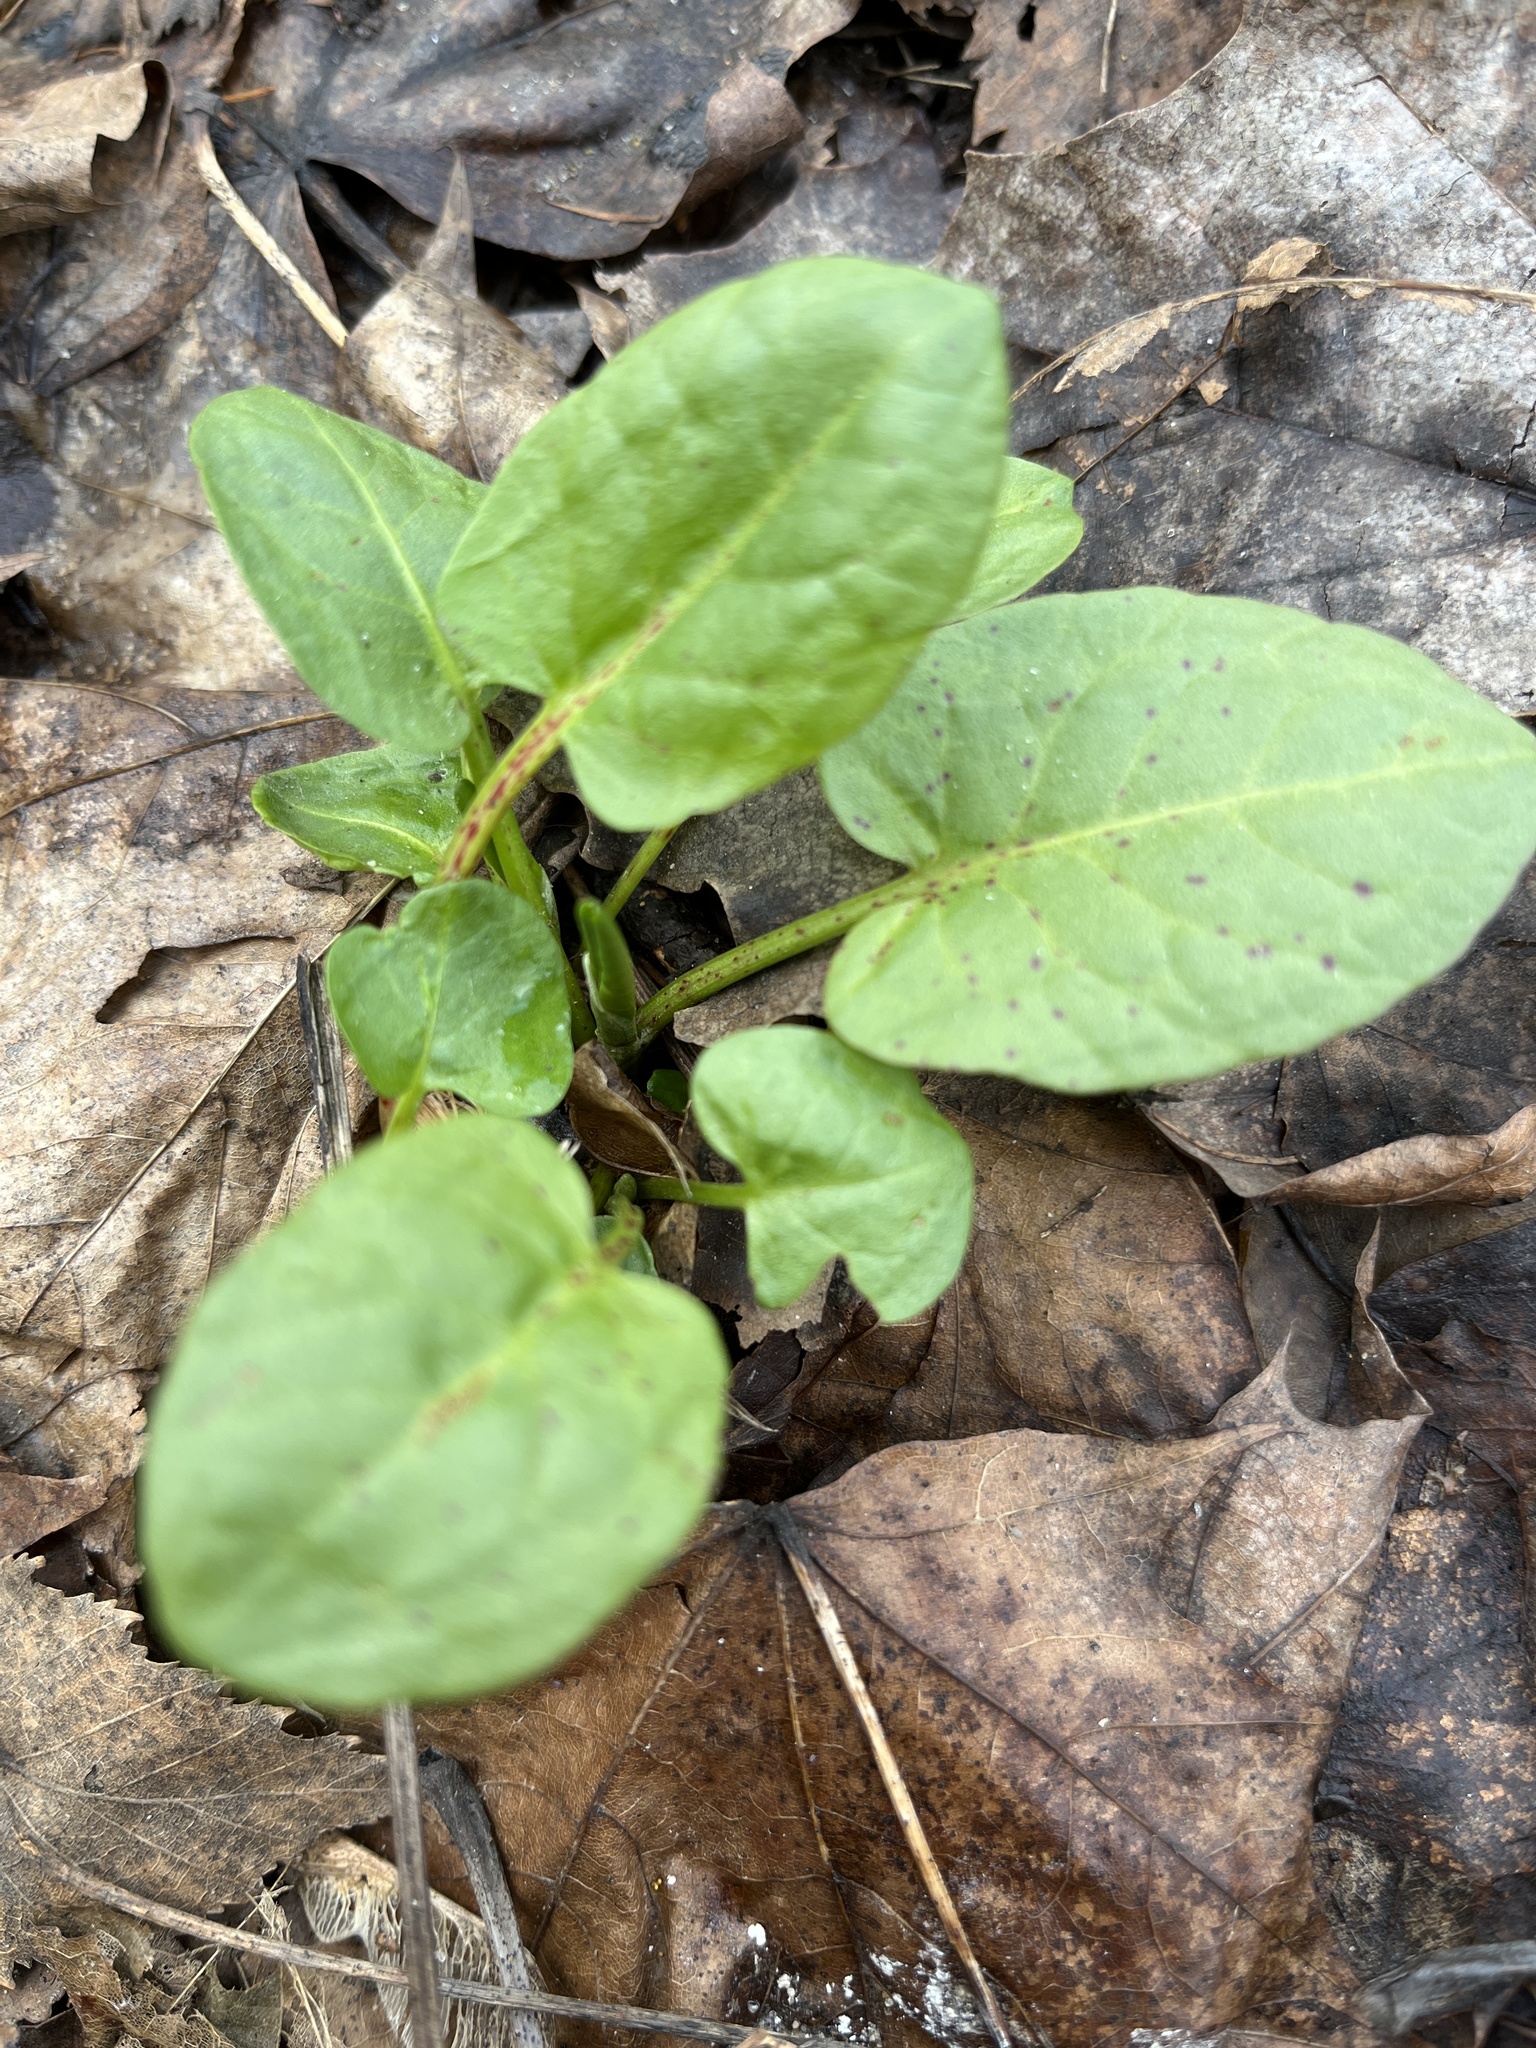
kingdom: Plantae
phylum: Tracheophyta
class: Magnoliopsida
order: Caryophyllales
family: Polygonaceae
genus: Rumex
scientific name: Rumex obtusifolius
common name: Bitter dock
